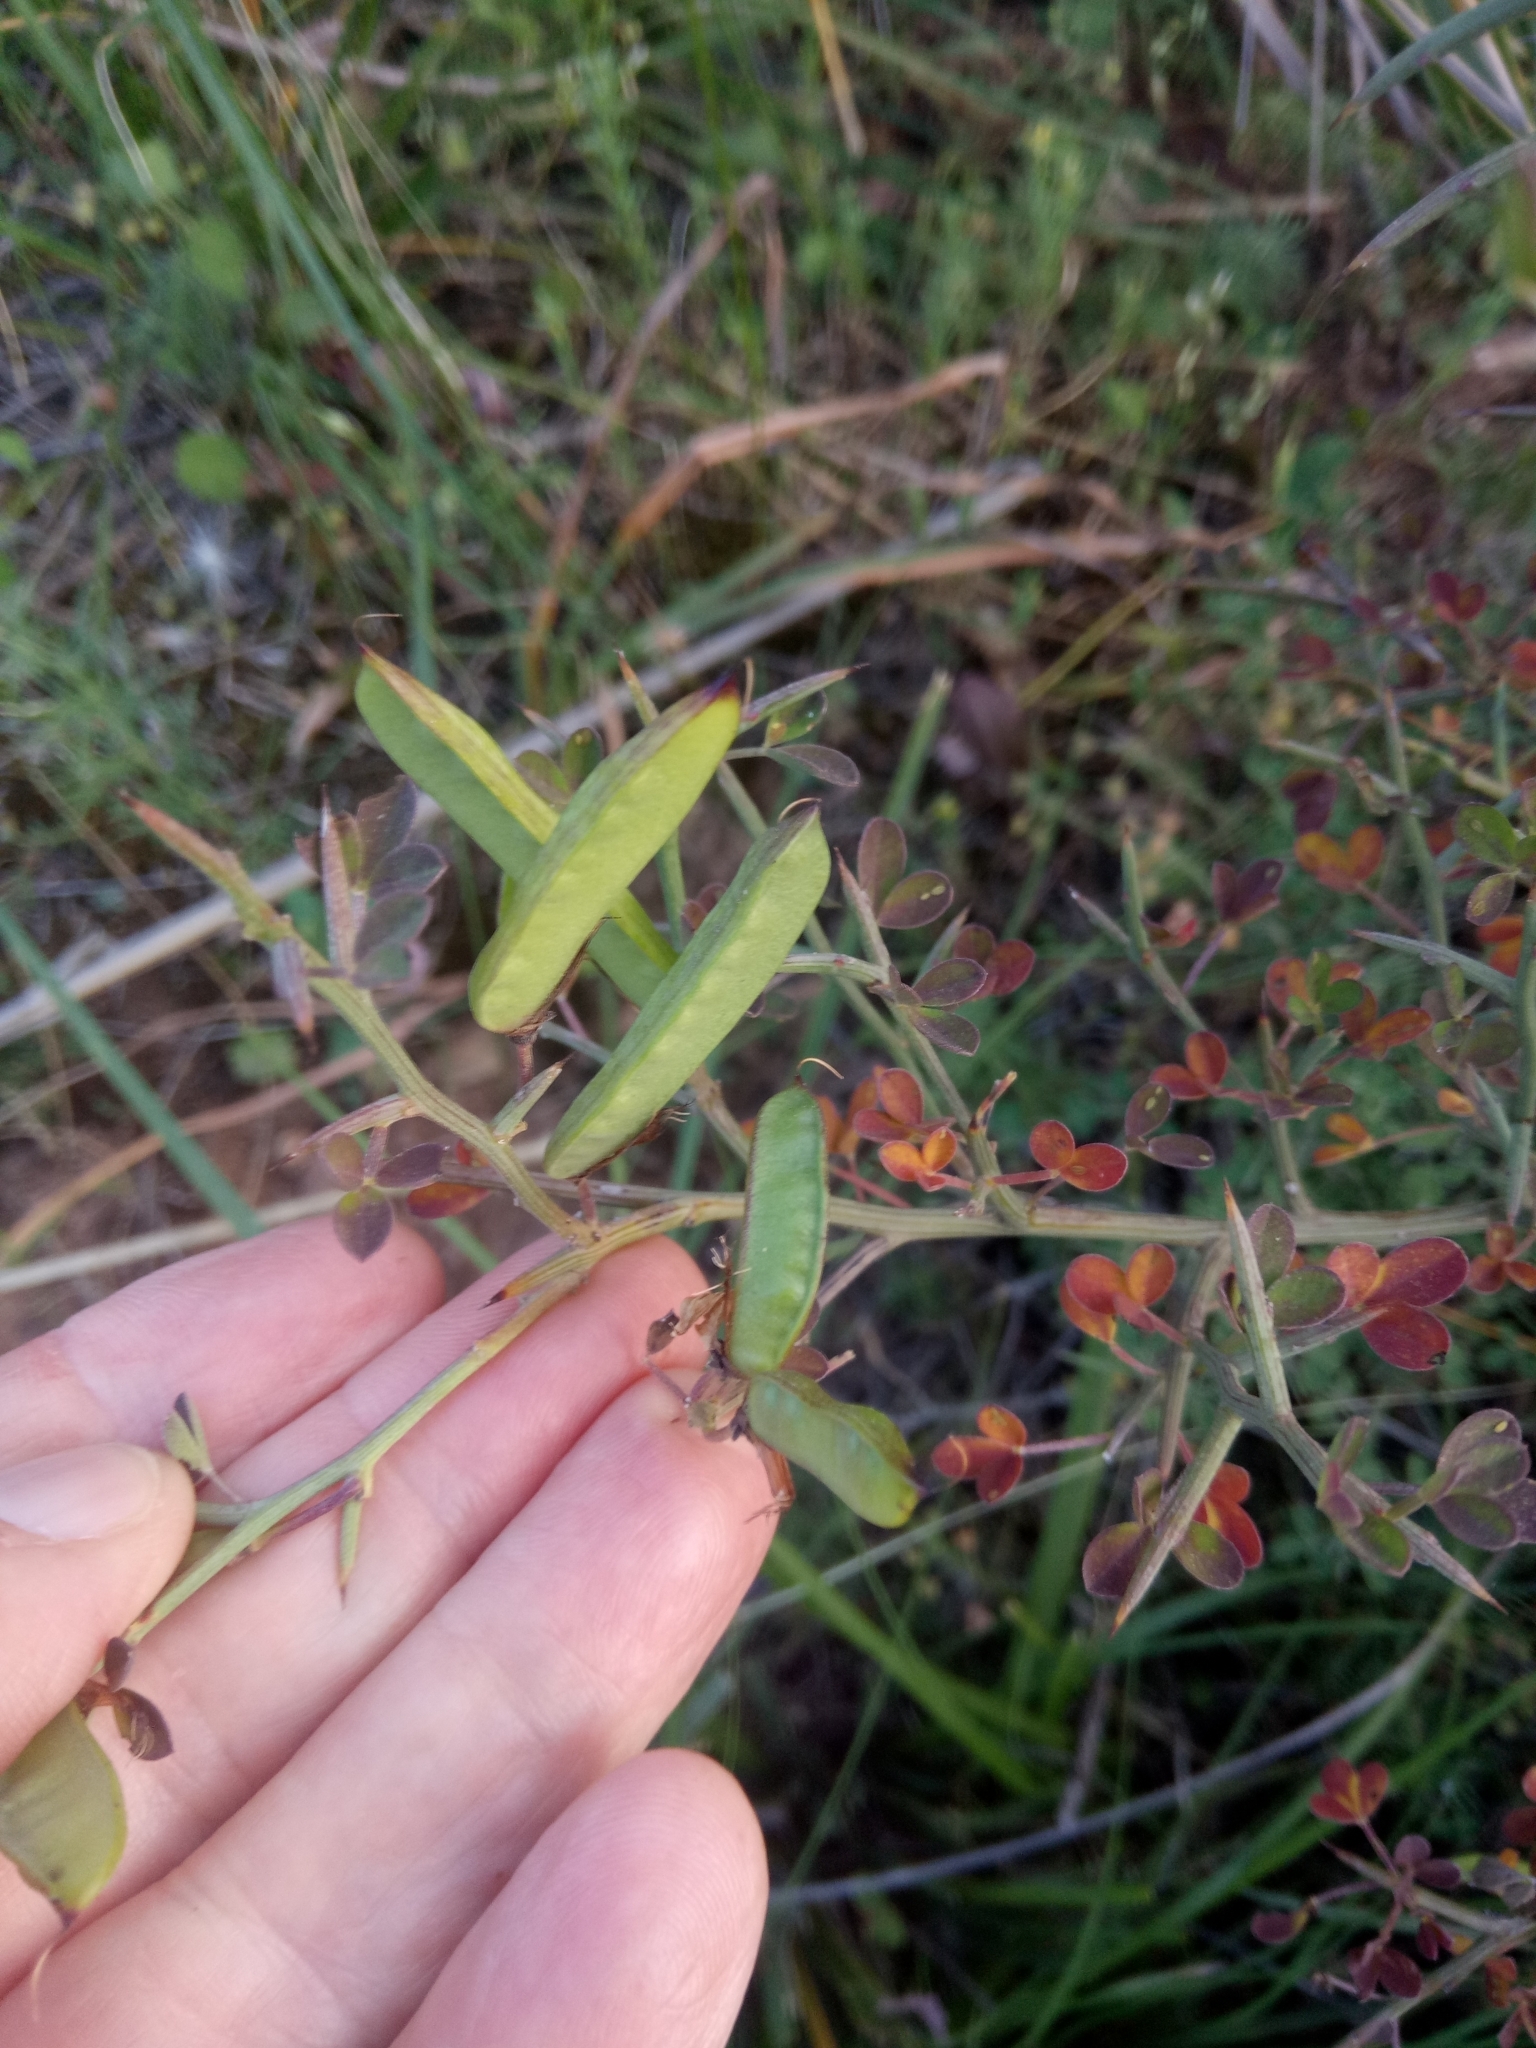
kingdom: Plantae
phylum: Tracheophyta
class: Magnoliopsida
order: Fabales
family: Fabaceae
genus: Calicotome
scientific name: Calicotome spinosa
